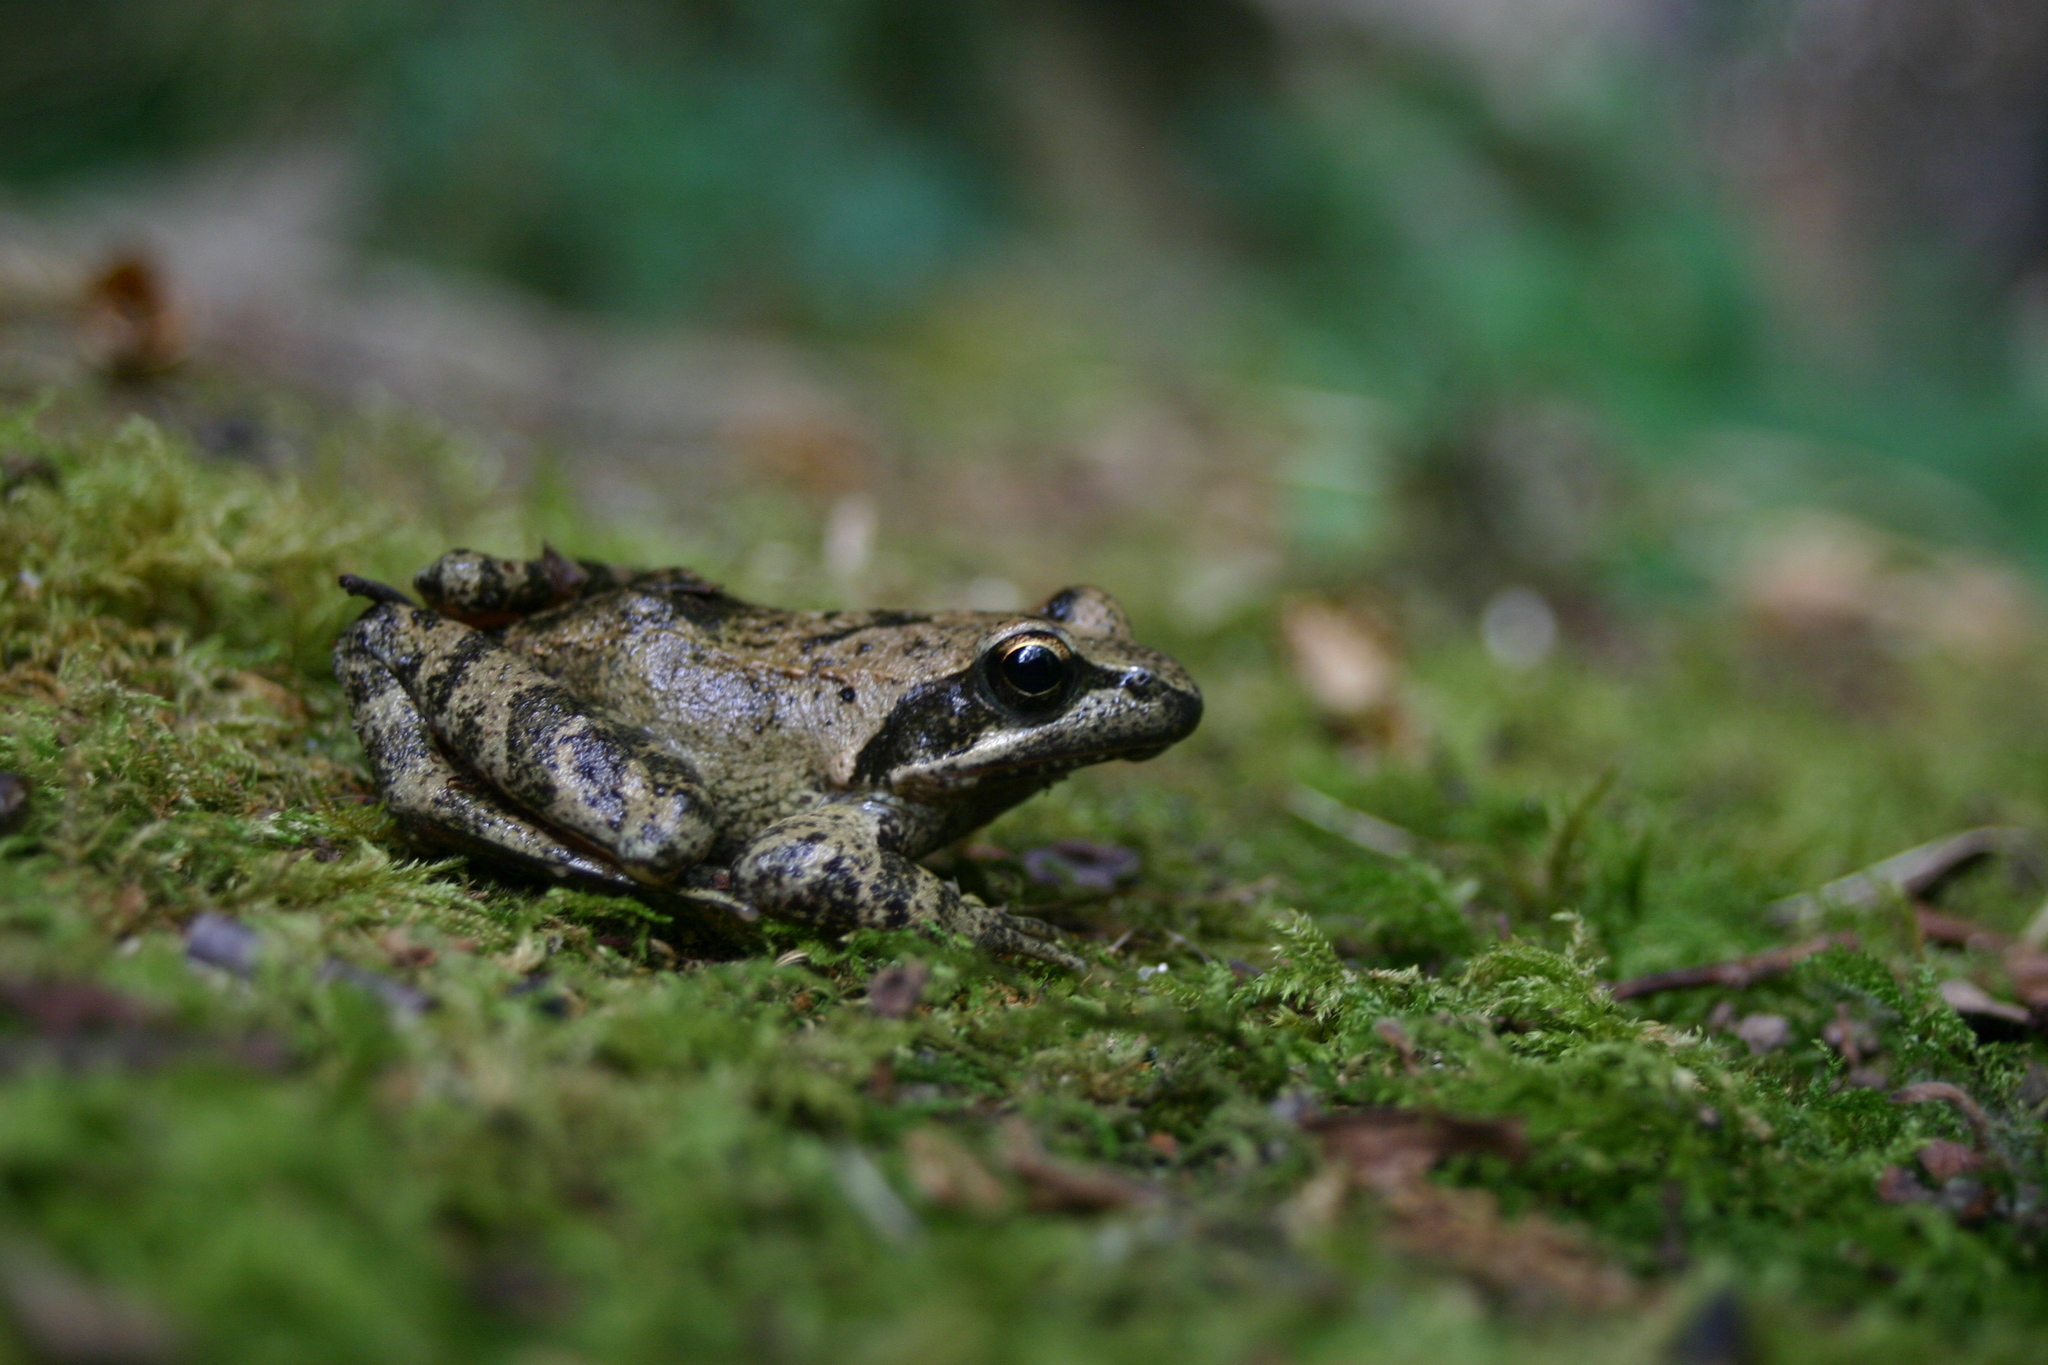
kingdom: Animalia
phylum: Chordata
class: Amphibia
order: Anura
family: Ranidae
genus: Rana
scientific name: Rana italica
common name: Italian stream frog
